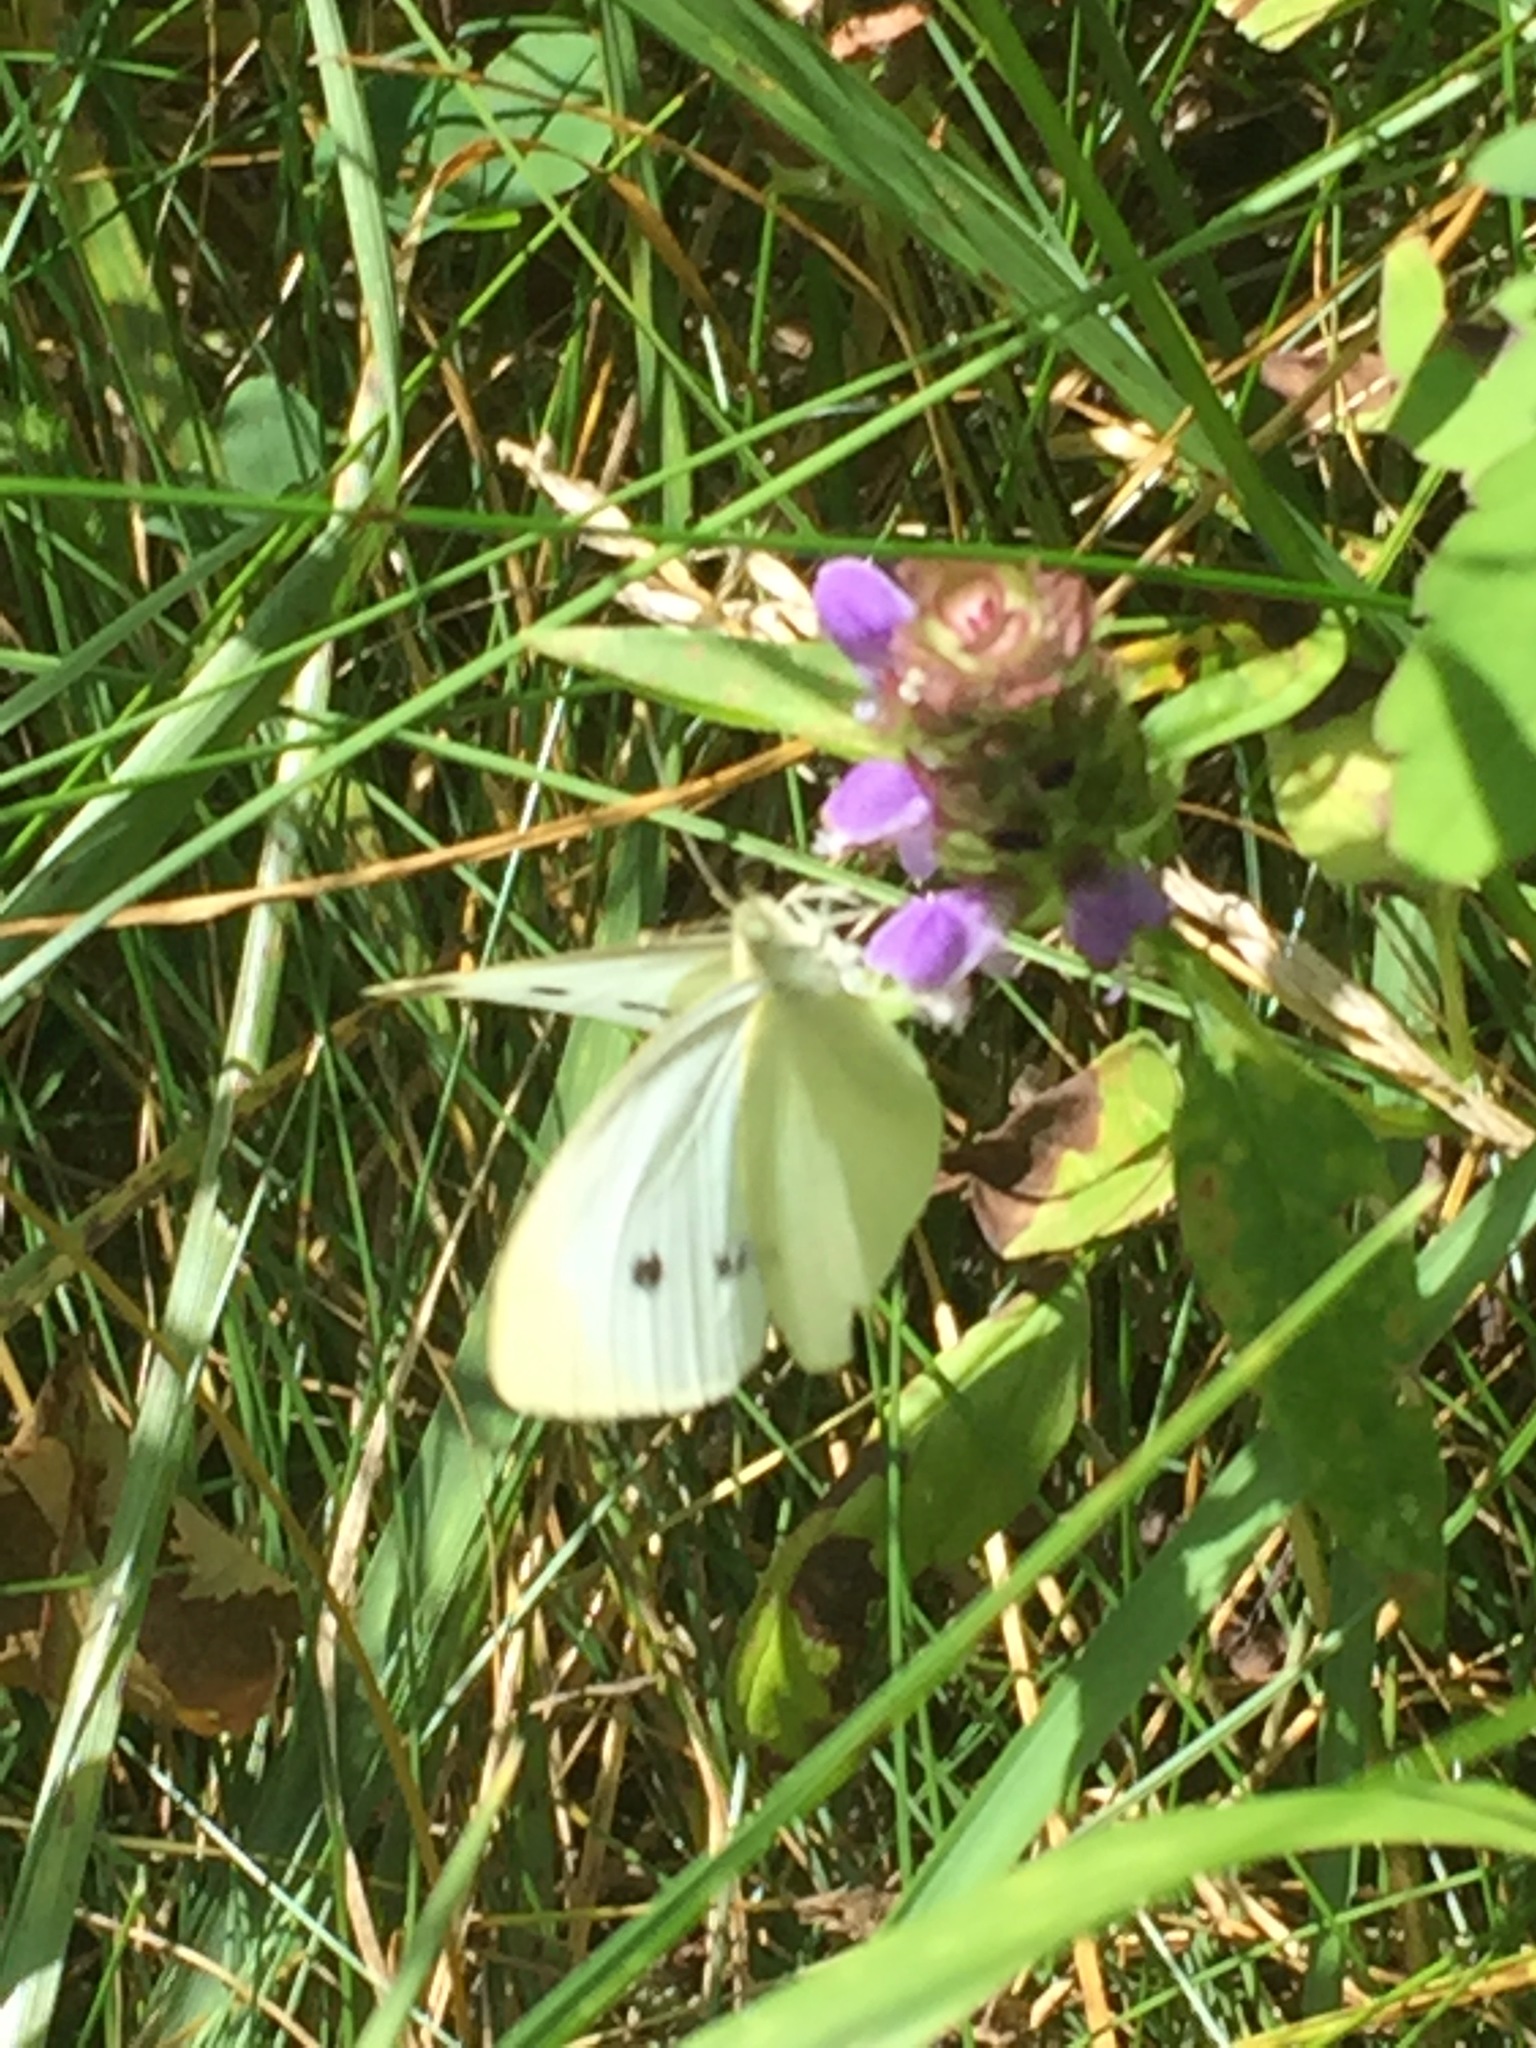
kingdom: Animalia
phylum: Arthropoda
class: Insecta
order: Lepidoptera
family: Pieridae
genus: Pieris
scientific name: Pieris rapae
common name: Small white
